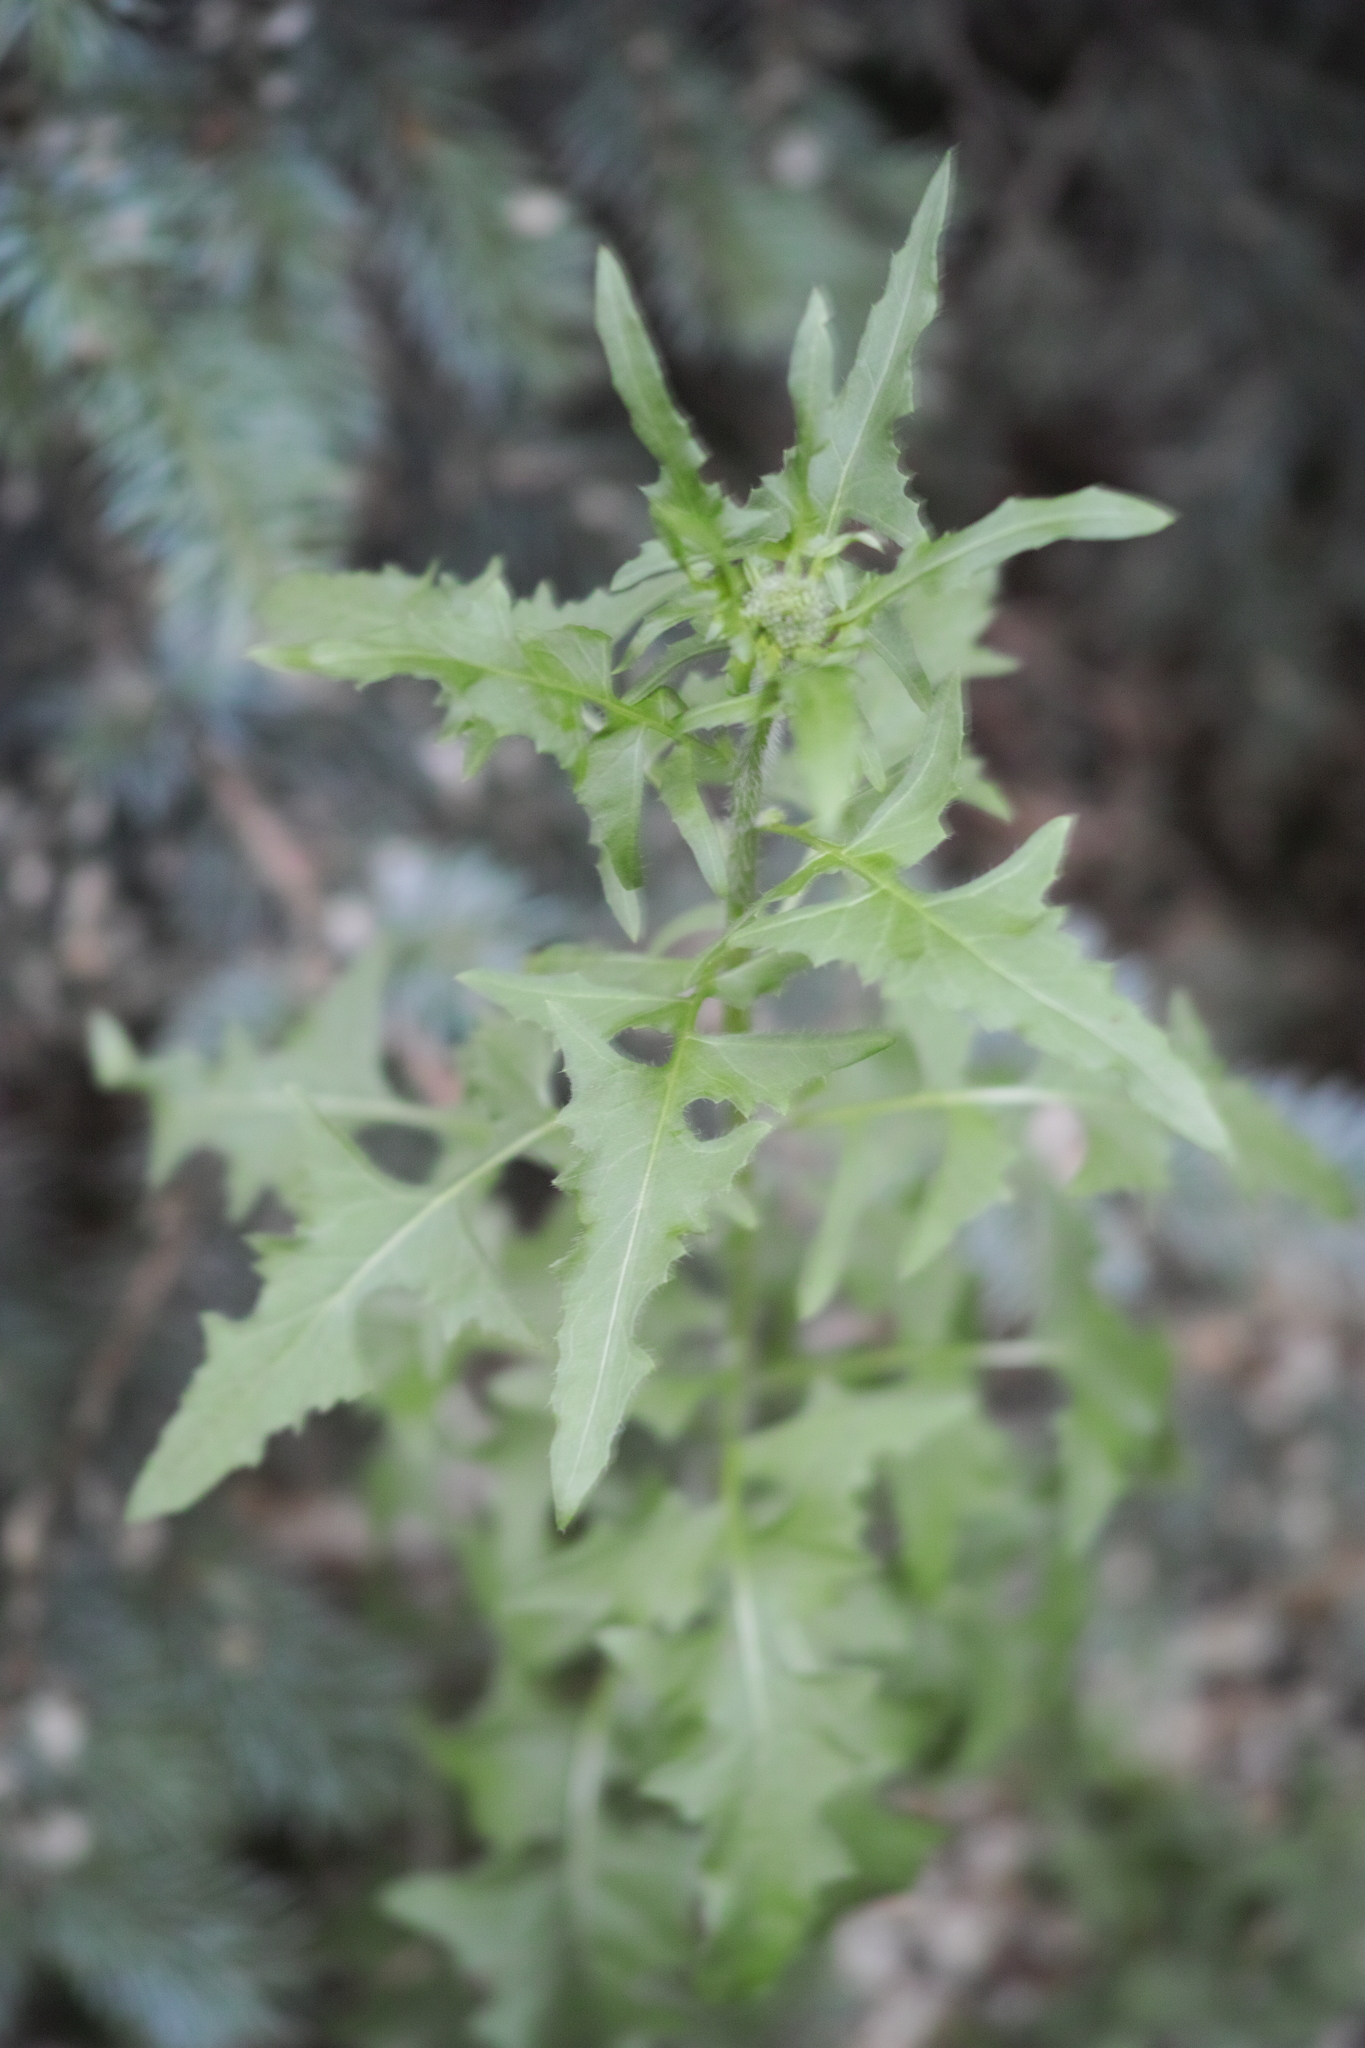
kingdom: Plantae
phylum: Tracheophyta
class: Magnoliopsida
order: Brassicales
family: Brassicaceae
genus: Sisymbrium
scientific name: Sisymbrium loeselii
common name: False london-rocket
